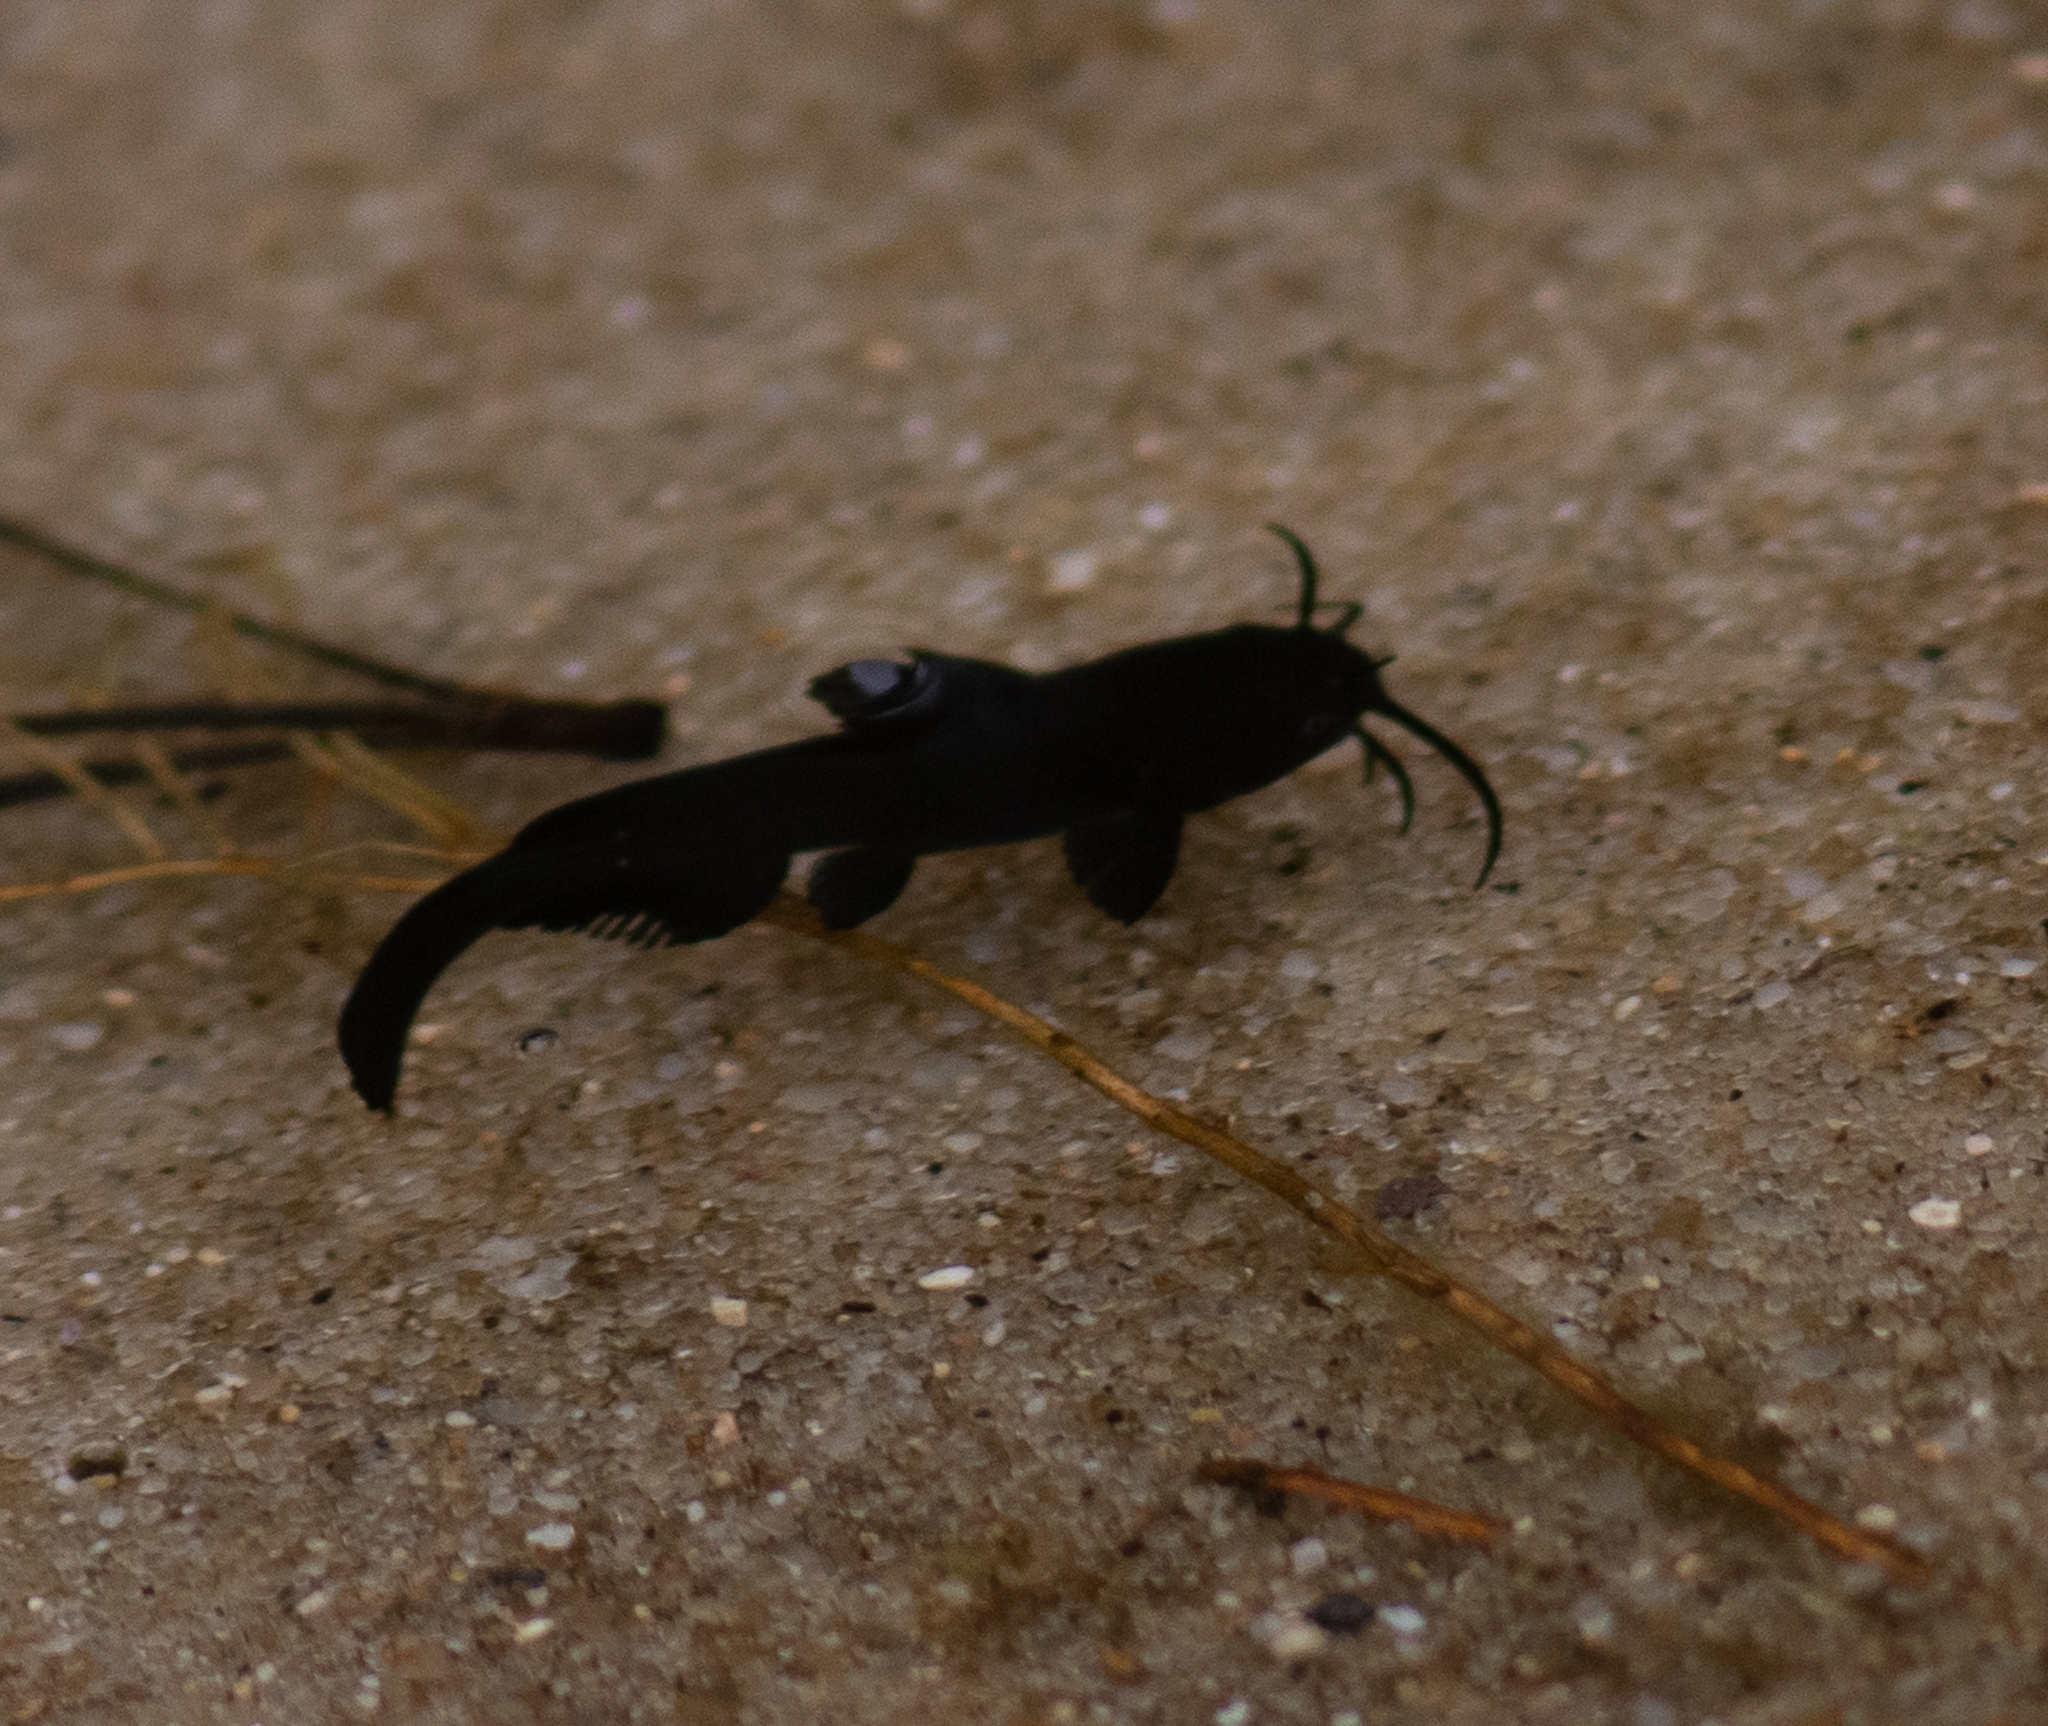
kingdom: Animalia
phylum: Chordata
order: Siluriformes
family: Ictaluridae
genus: Ameiurus
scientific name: Ameiurus nebulosus
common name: Brown bullhead
